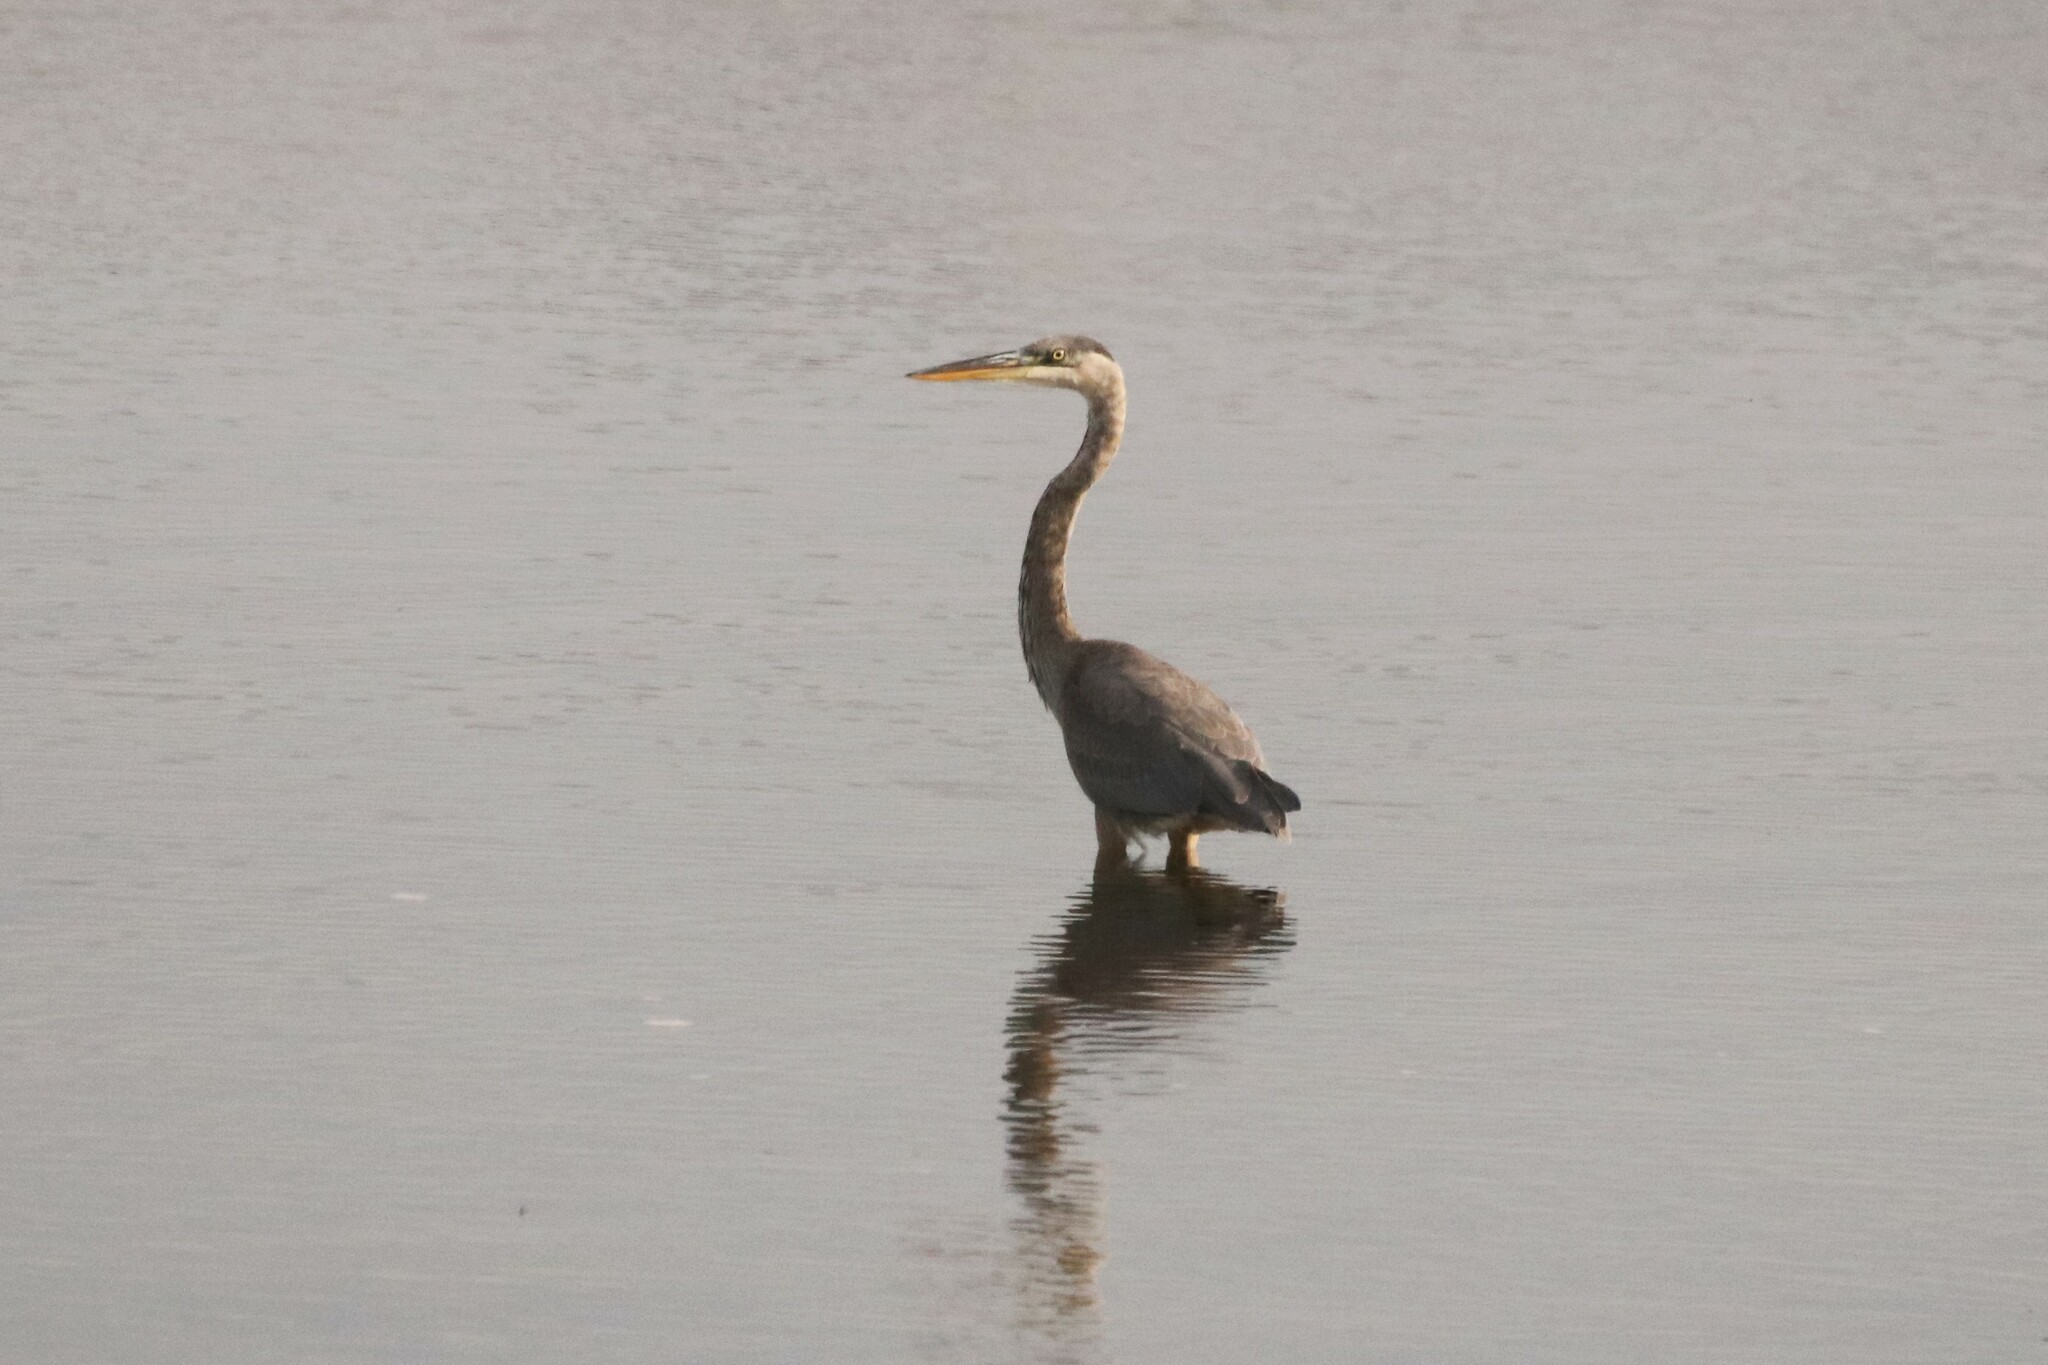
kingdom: Animalia
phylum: Chordata
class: Aves
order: Pelecaniformes
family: Ardeidae
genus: Ardea
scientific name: Ardea herodias
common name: Great blue heron
